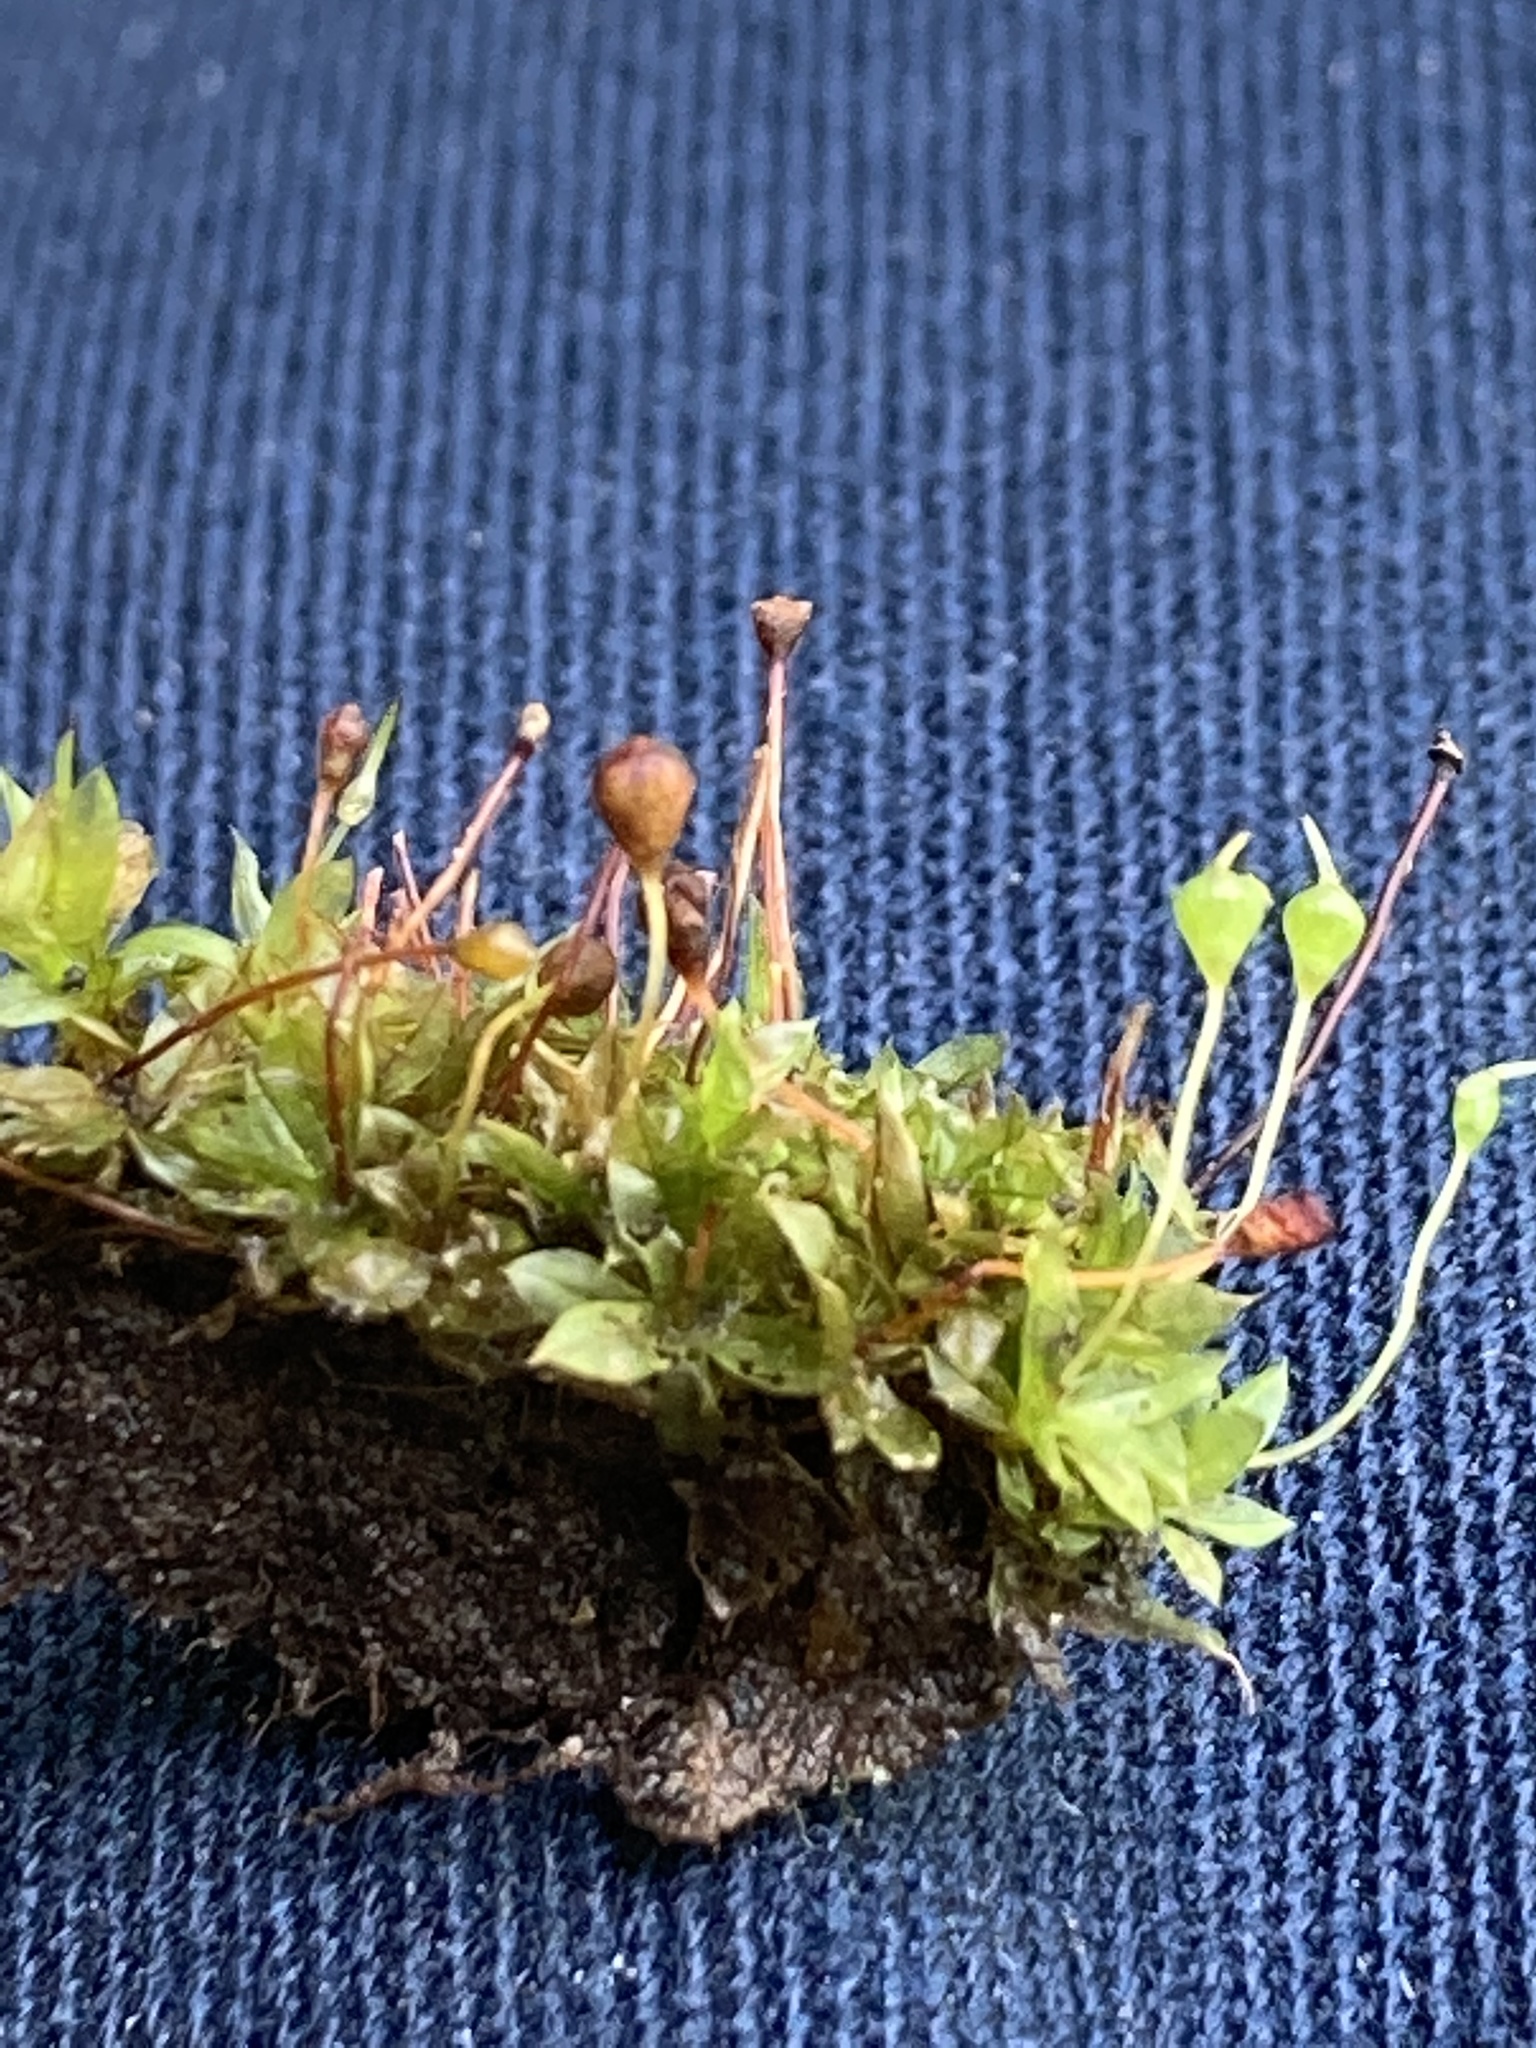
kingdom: Plantae
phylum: Bryophyta
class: Bryopsida
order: Funariales
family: Funariaceae
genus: Physcomitrium
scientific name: Physcomitrium pyriforme
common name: Common bladder-moss
